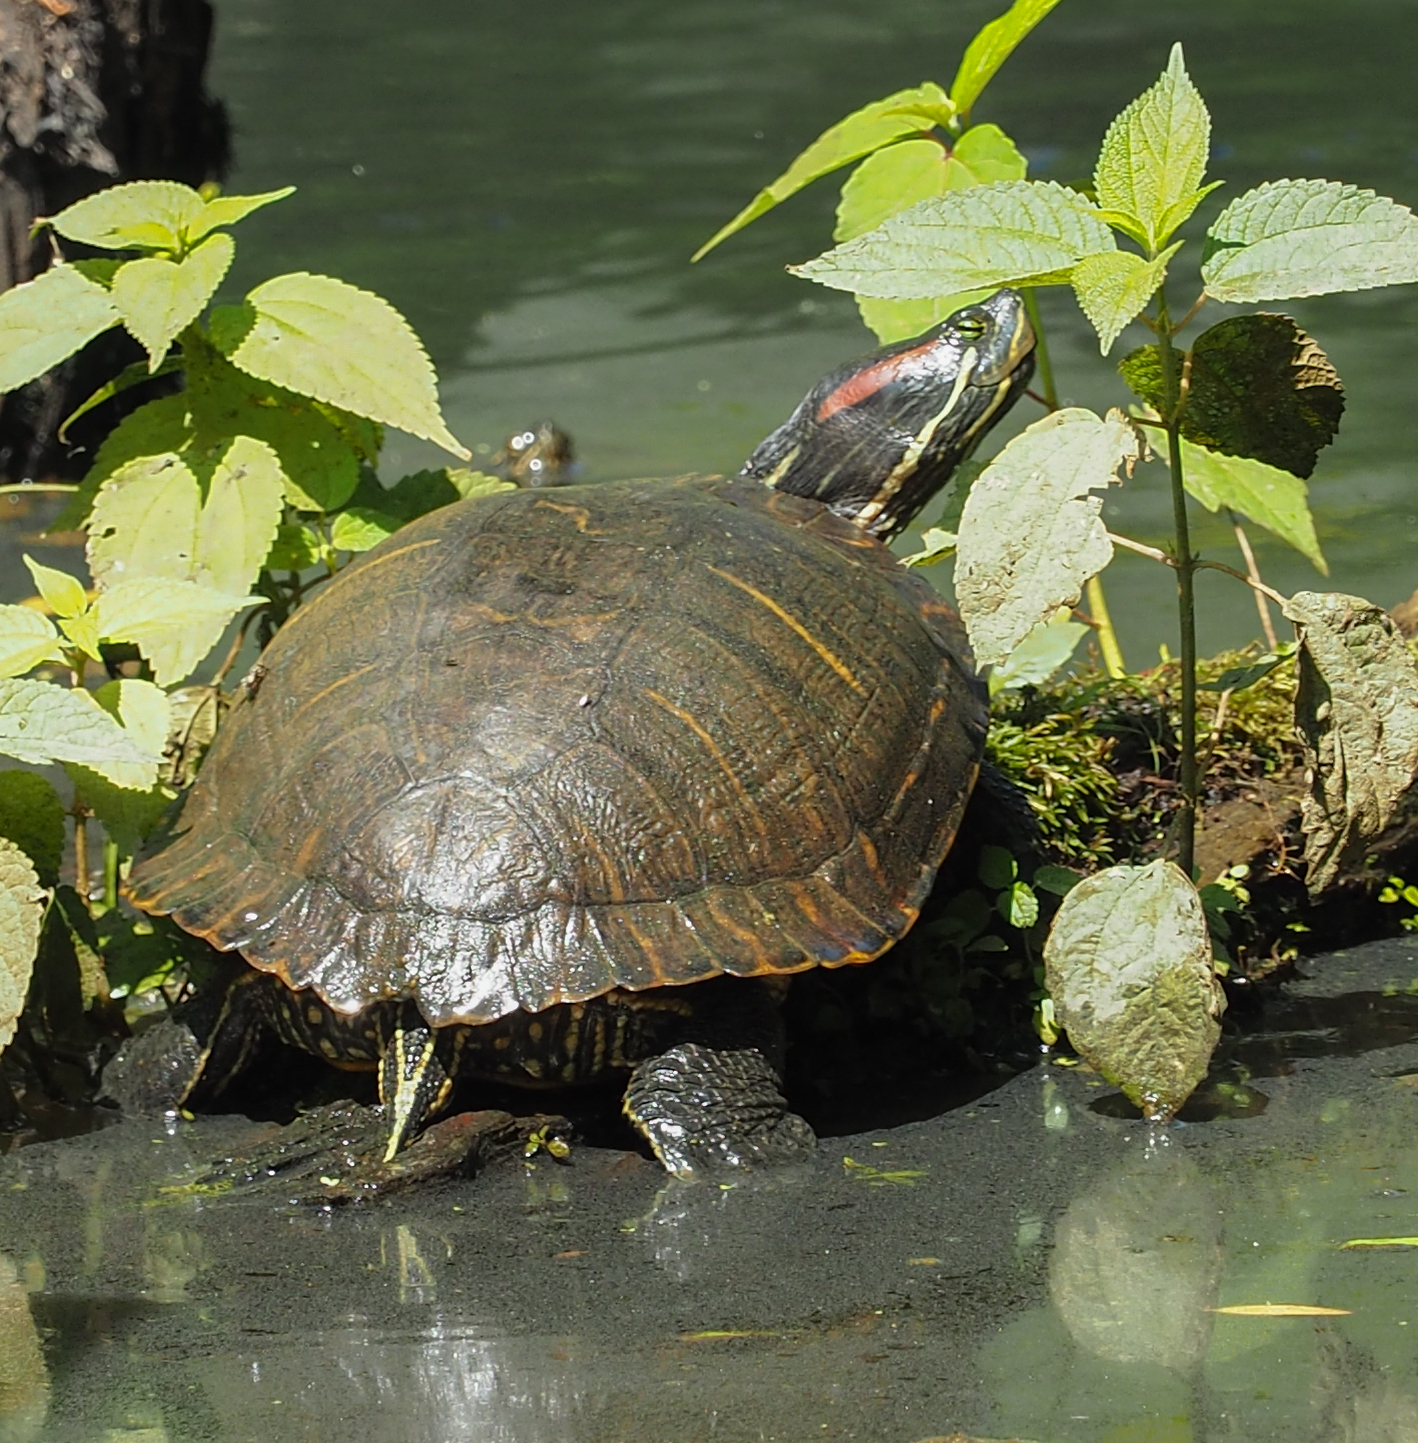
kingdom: Animalia
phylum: Chordata
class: Testudines
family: Emydidae
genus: Trachemys
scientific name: Trachemys scripta
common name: Slider
